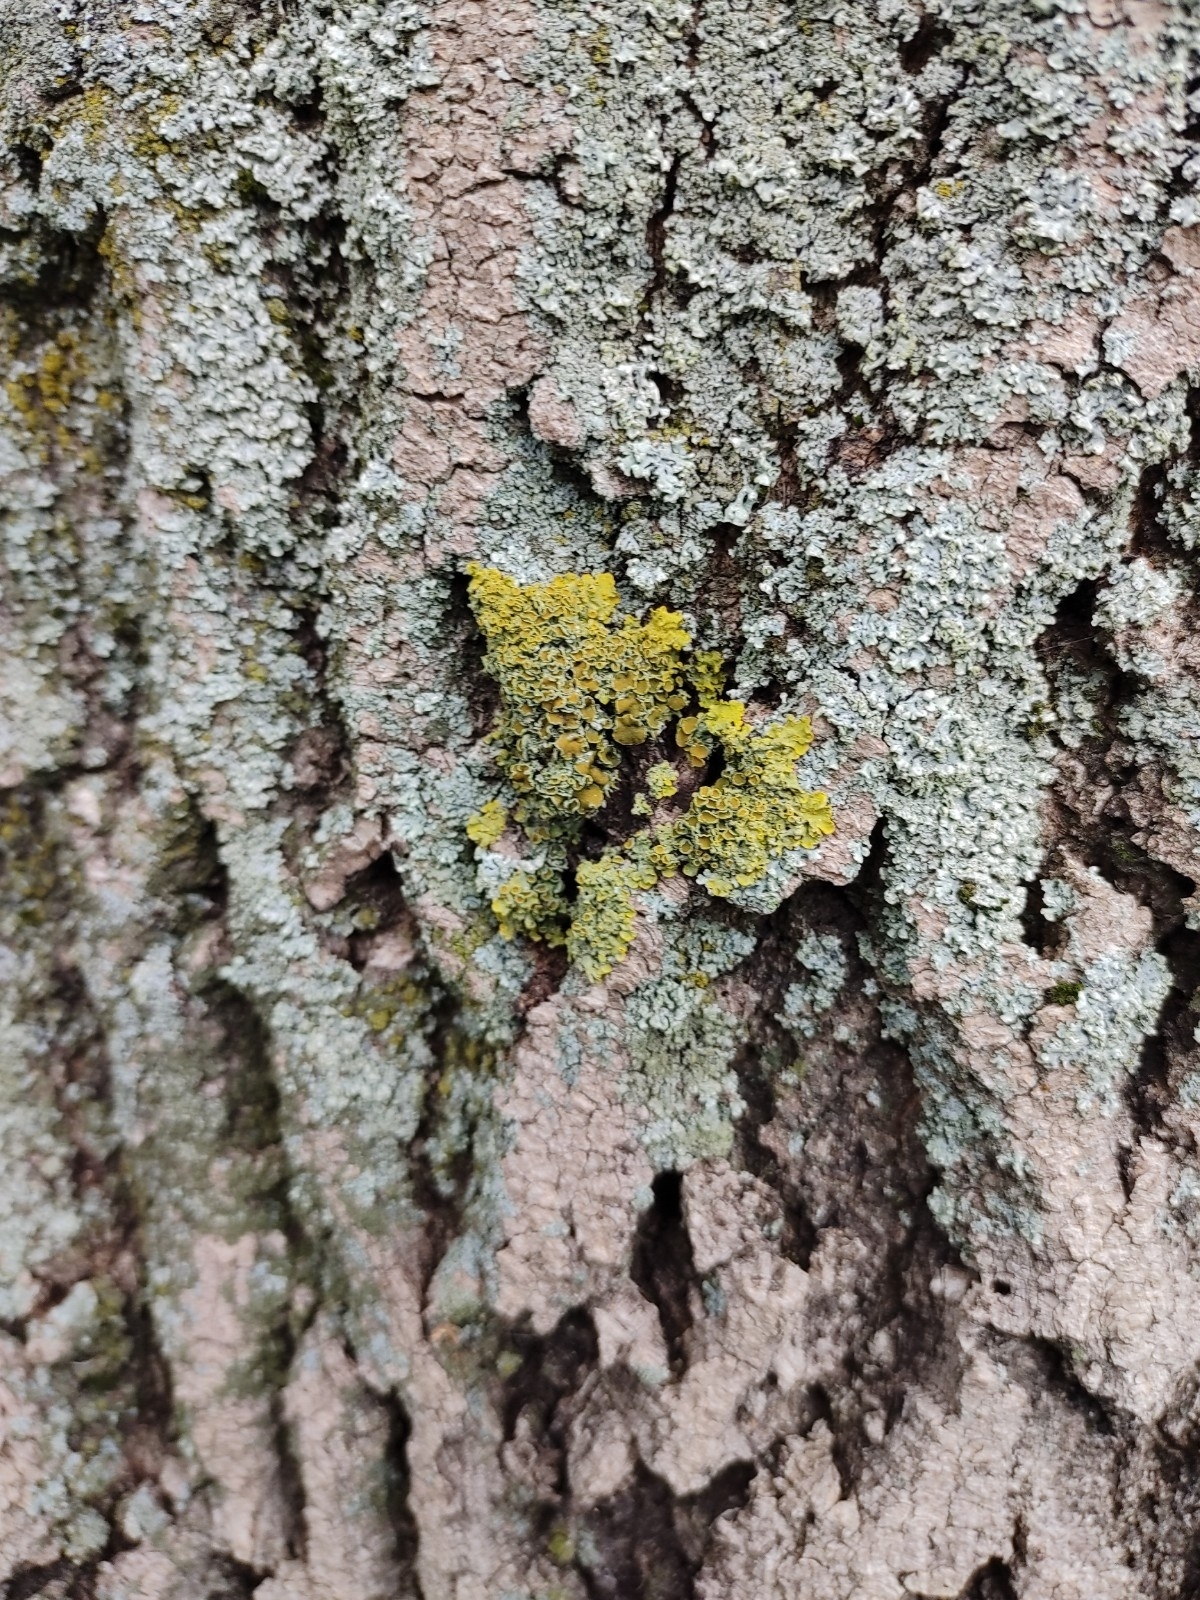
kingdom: Fungi
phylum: Ascomycota
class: Lecanoromycetes
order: Teloschistales
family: Teloschistaceae
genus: Xanthoria
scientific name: Xanthoria parietina
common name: Common orange lichen
